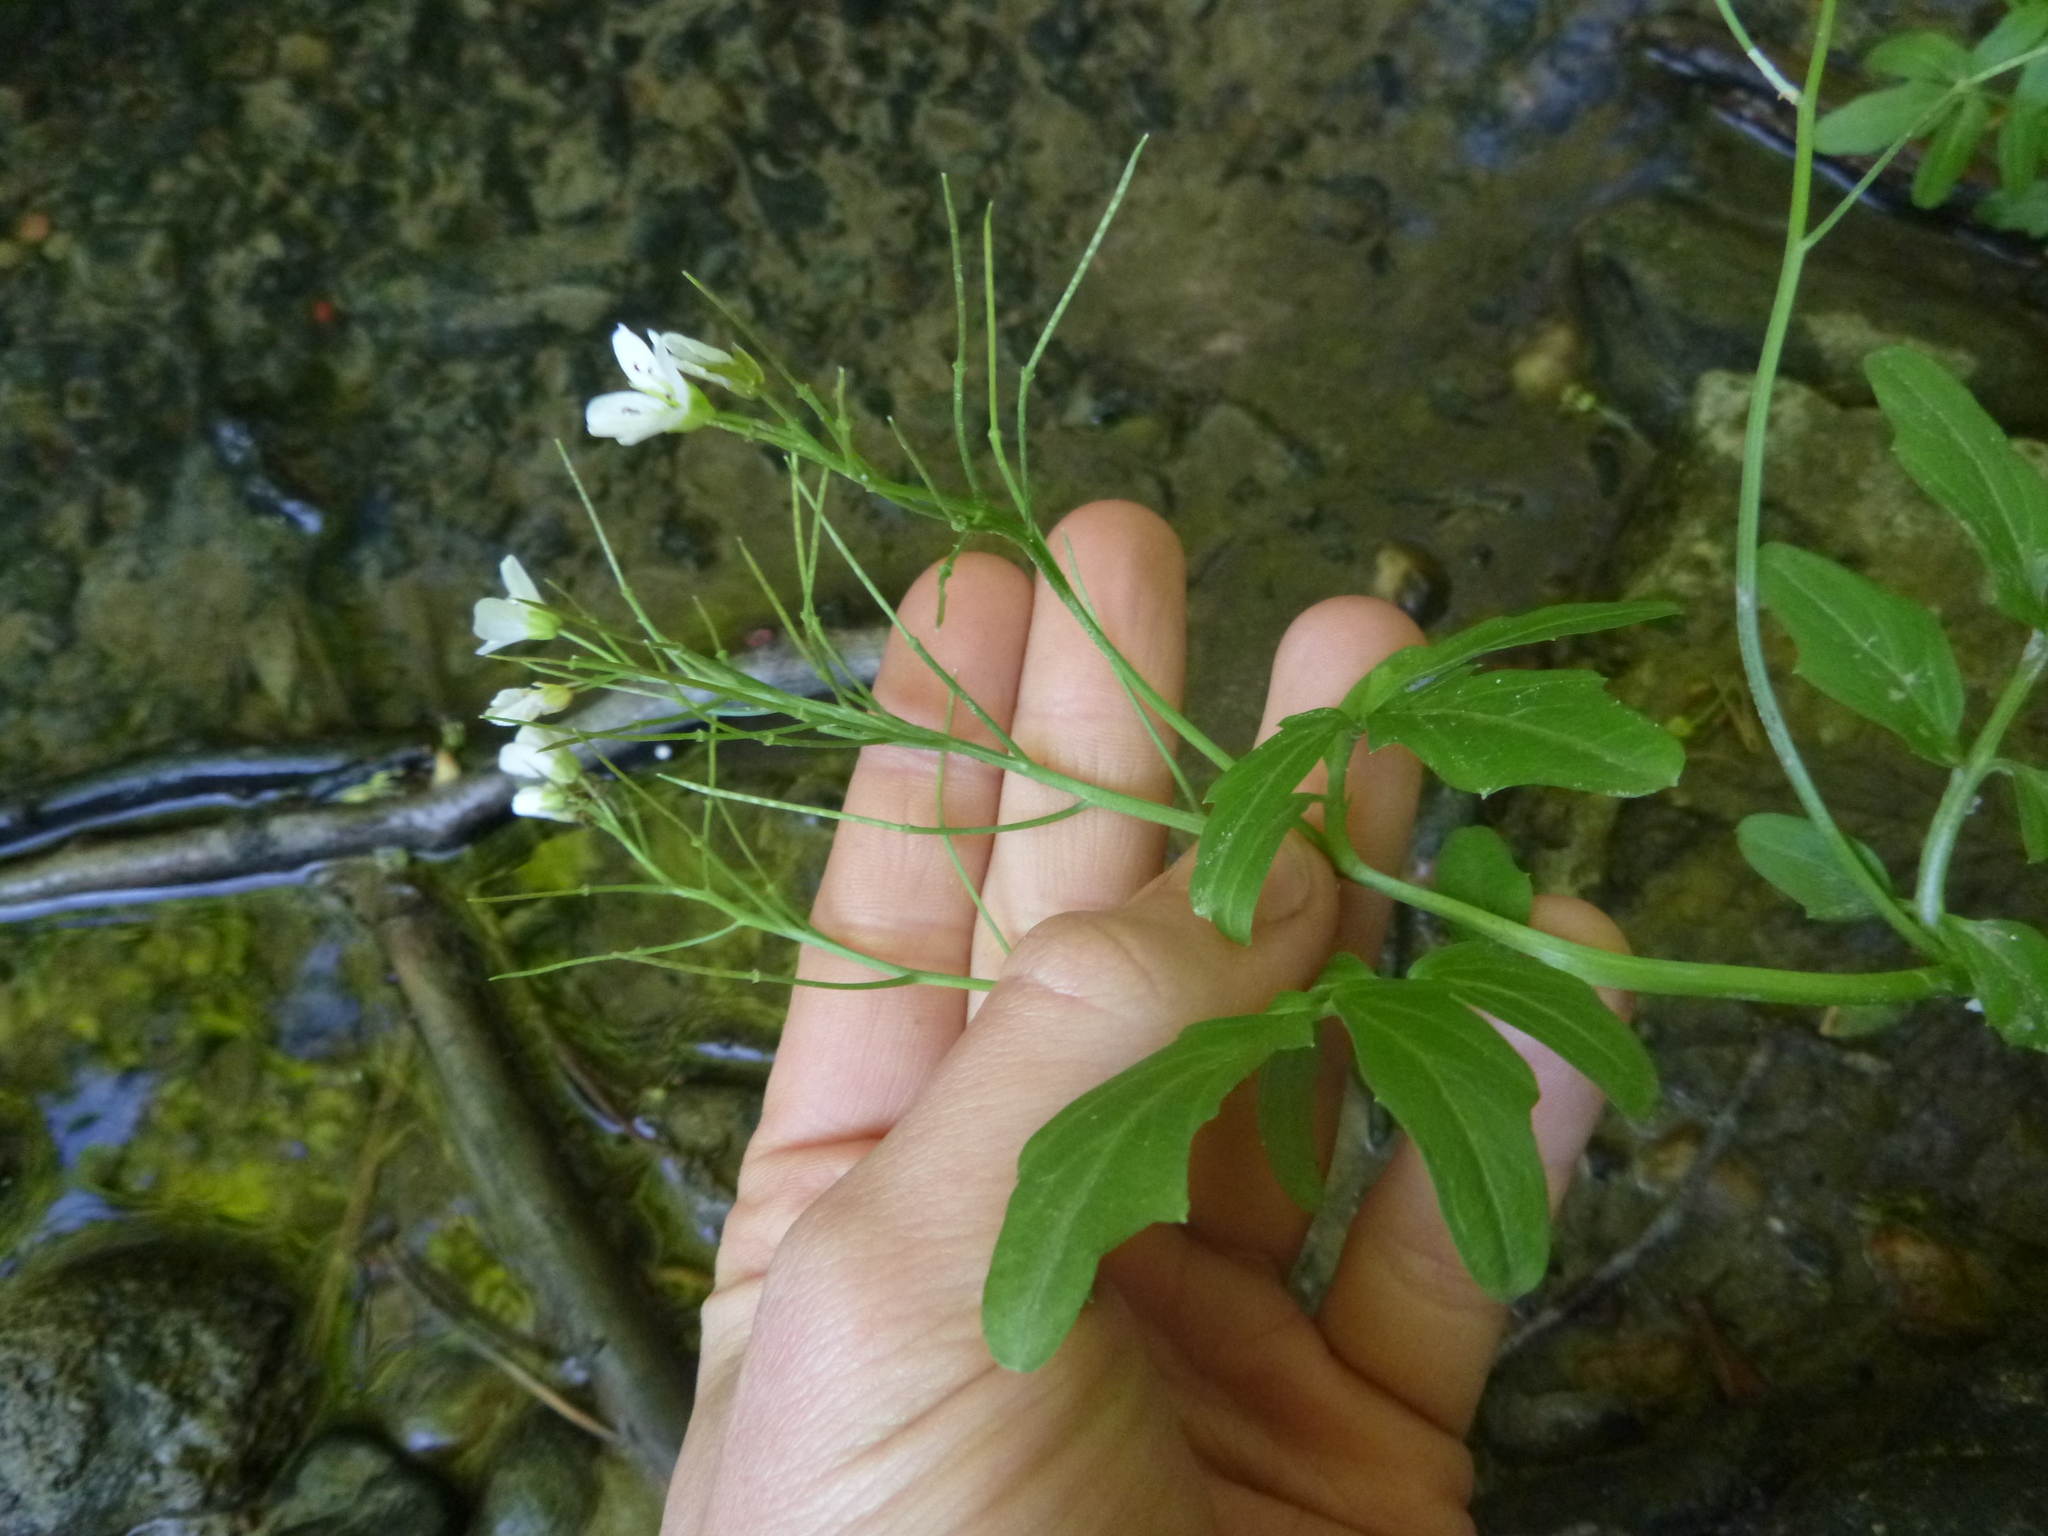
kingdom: Plantae
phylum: Tracheophyta
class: Magnoliopsida
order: Brassicales
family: Brassicaceae
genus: Cardamine
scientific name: Cardamine amara
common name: Large bitter-cress
